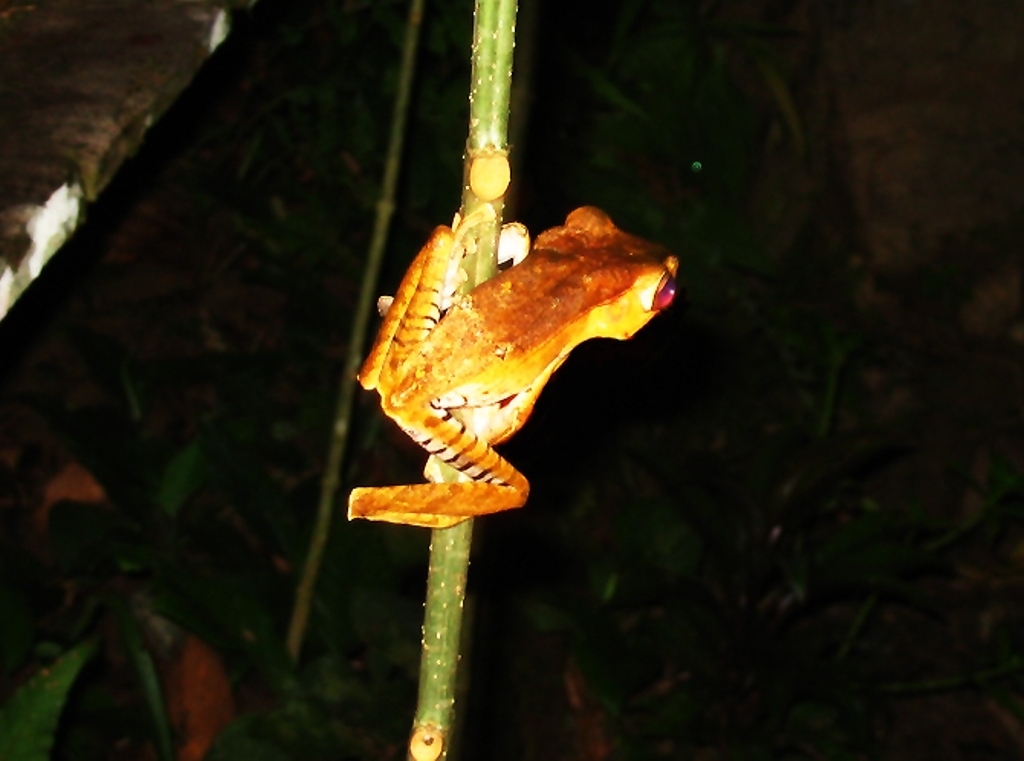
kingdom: Animalia
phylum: Chordata
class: Amphibia
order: Anura
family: Rhacophoridae
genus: Polypedates
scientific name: Polypedates otilophus
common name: File-eared tree frog
